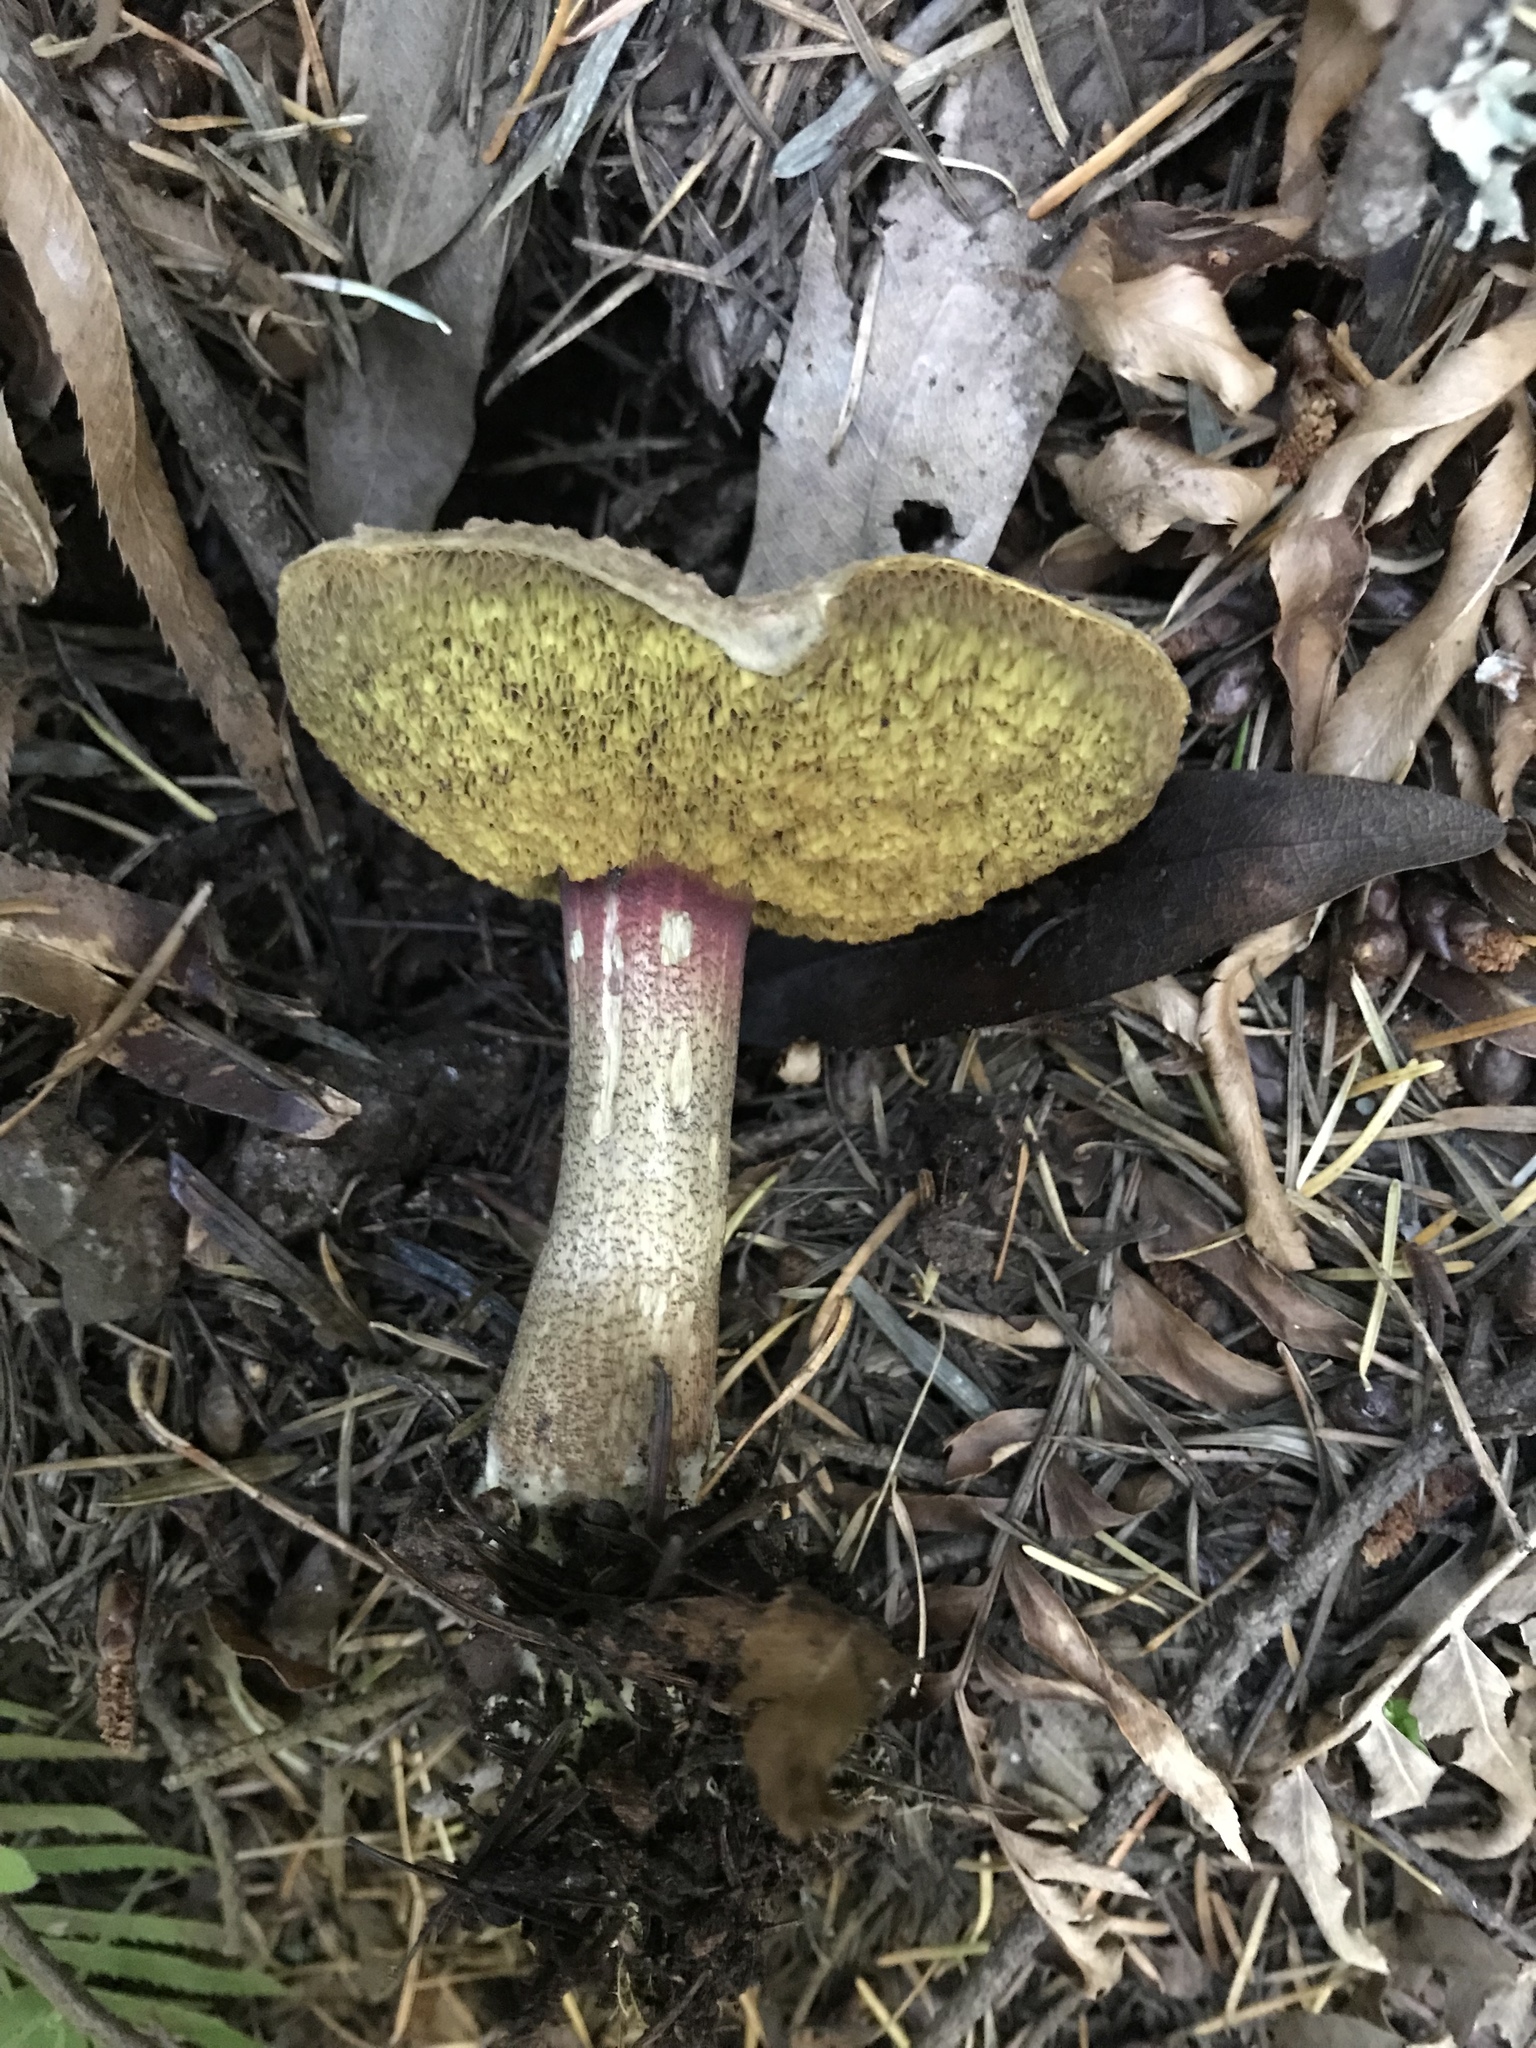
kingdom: Fungi
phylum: Basidiomycota
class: Agaricomycetes
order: Boletales
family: Boletaceae
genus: Xerocomellus
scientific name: Xerocomellus mendocinensis
